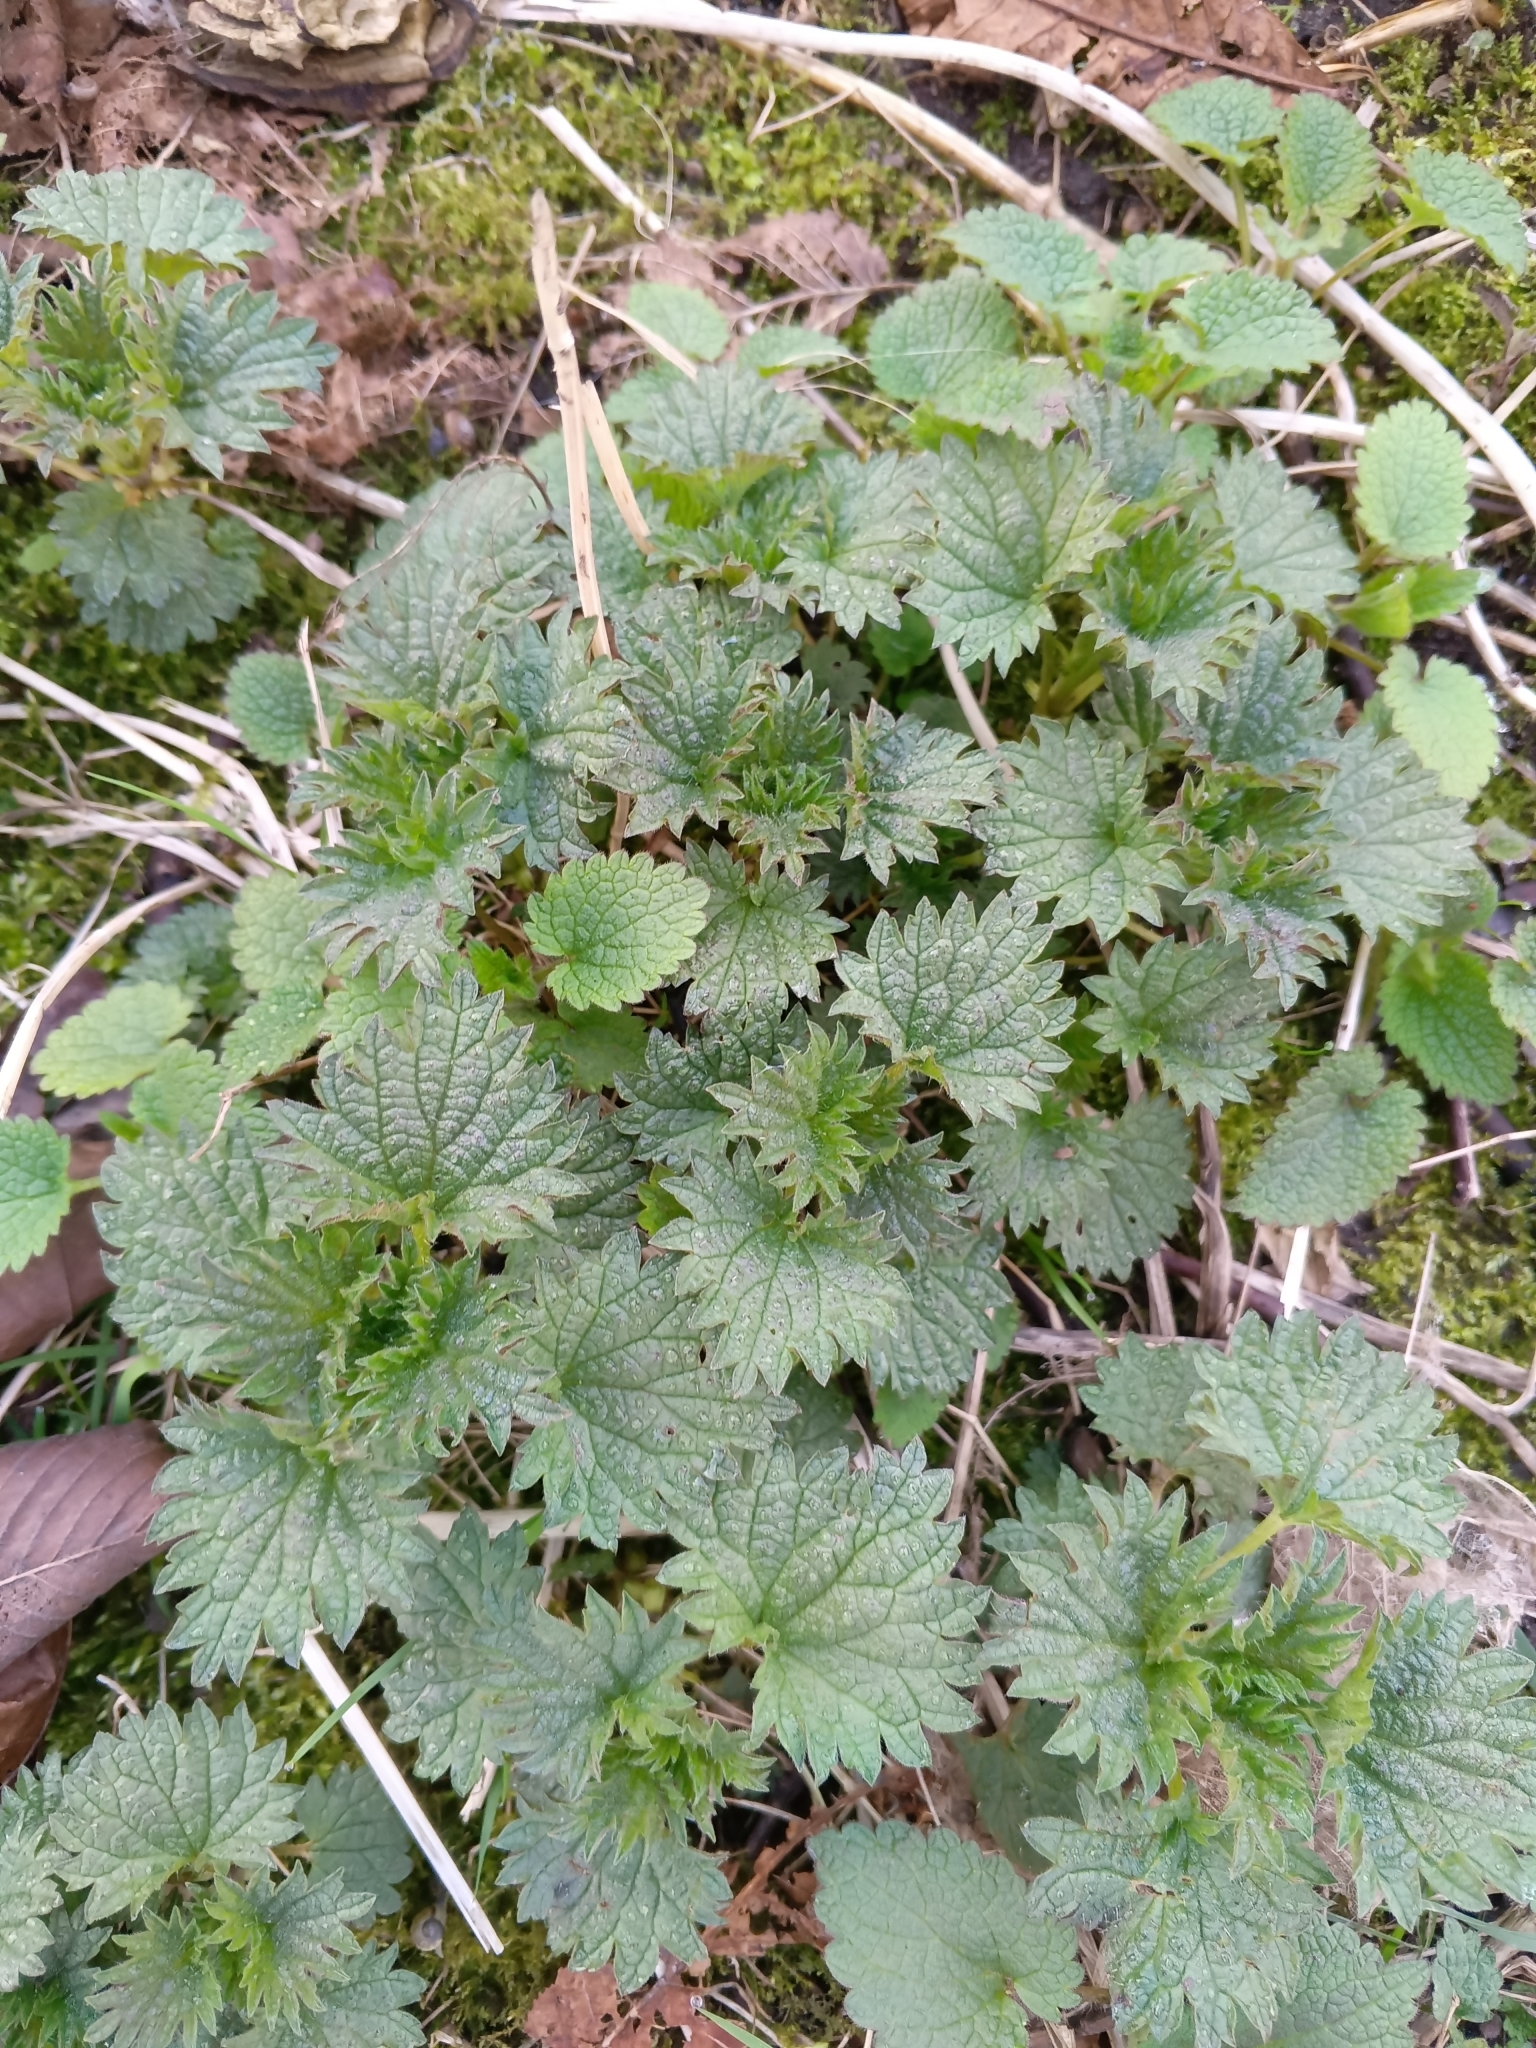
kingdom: Plantae
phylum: Tracheophyta
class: Magnoliopsida
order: Rosales
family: Urticaceae
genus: Urtica
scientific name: Urtica dioica
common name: Common nettle
